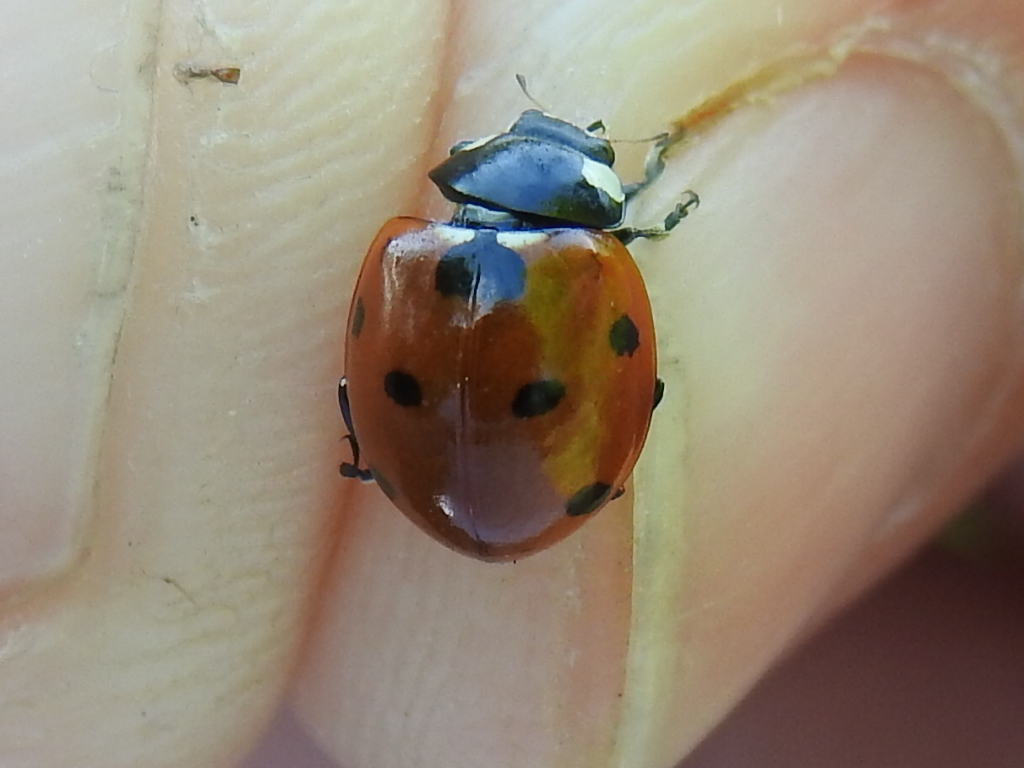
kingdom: Animalia
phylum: Arthropoda
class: Insecta
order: Coleoptera
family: Coccinellidae
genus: Coccinella
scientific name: Coccinella septempunctata
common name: Sevenspotted lady beetle
